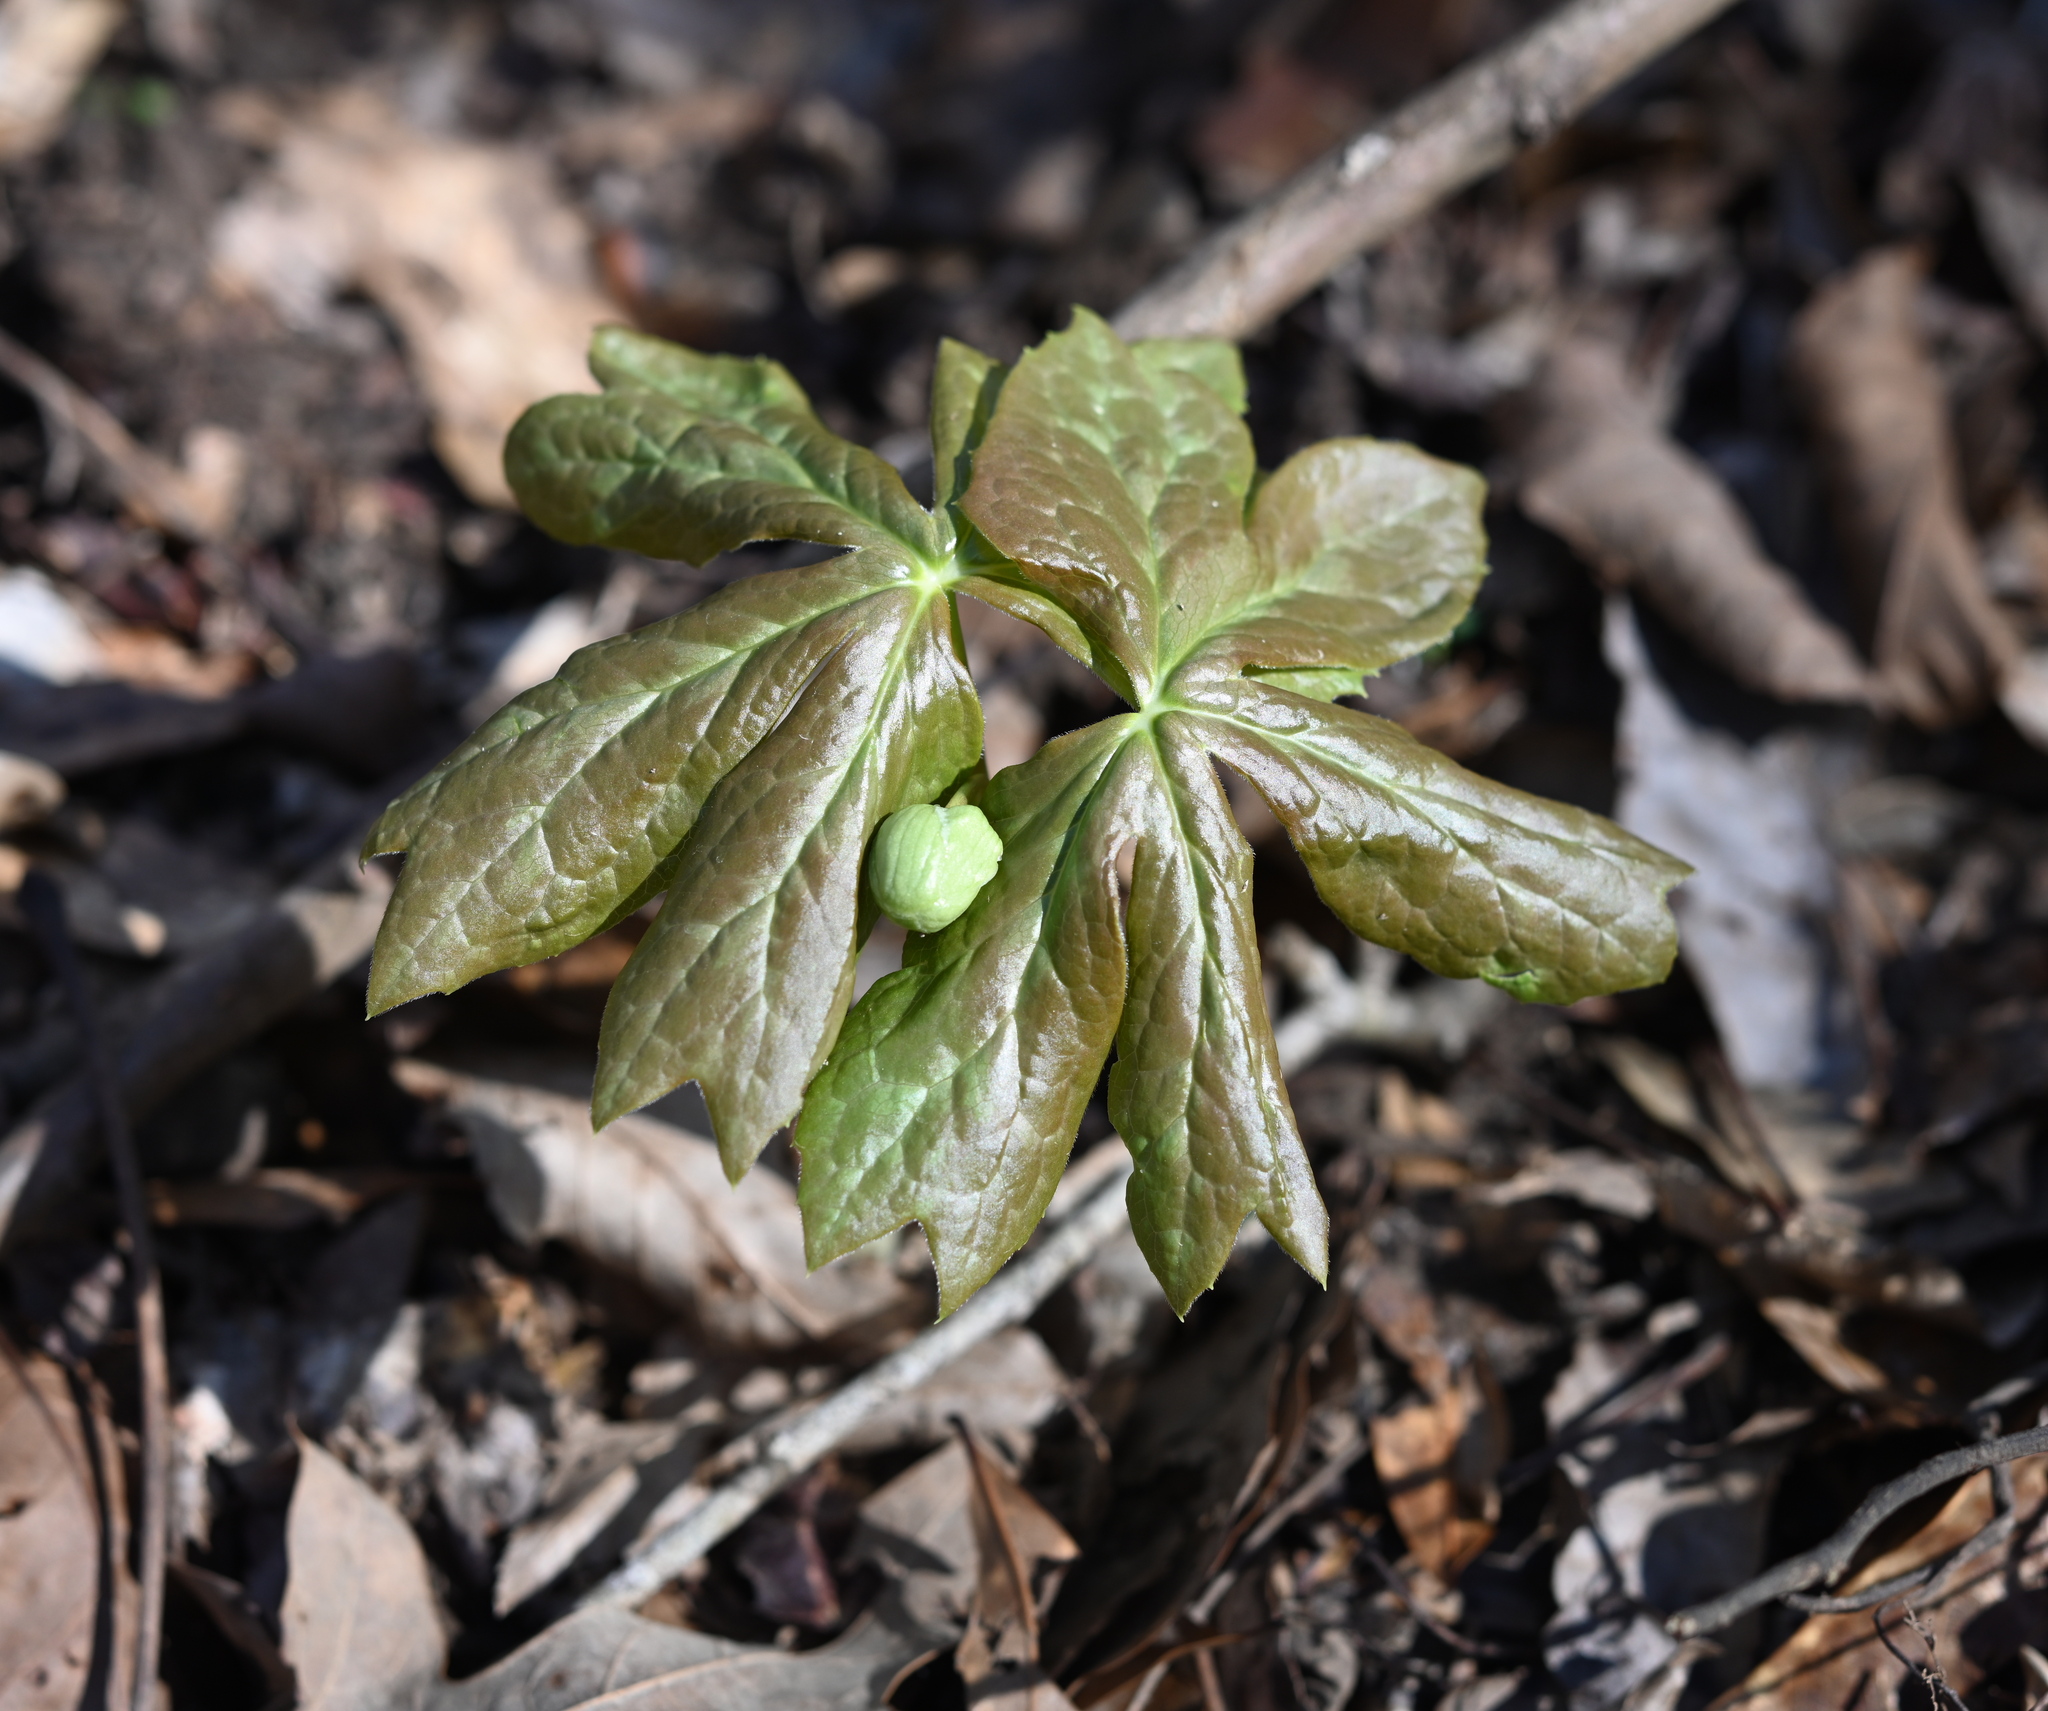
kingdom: Plantae
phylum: Tracheophyta
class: Magnoliopsida
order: Ranunculales
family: Berberidaceae
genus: Podophyllum
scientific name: Podophyllum peltatum
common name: Wild mandrake
